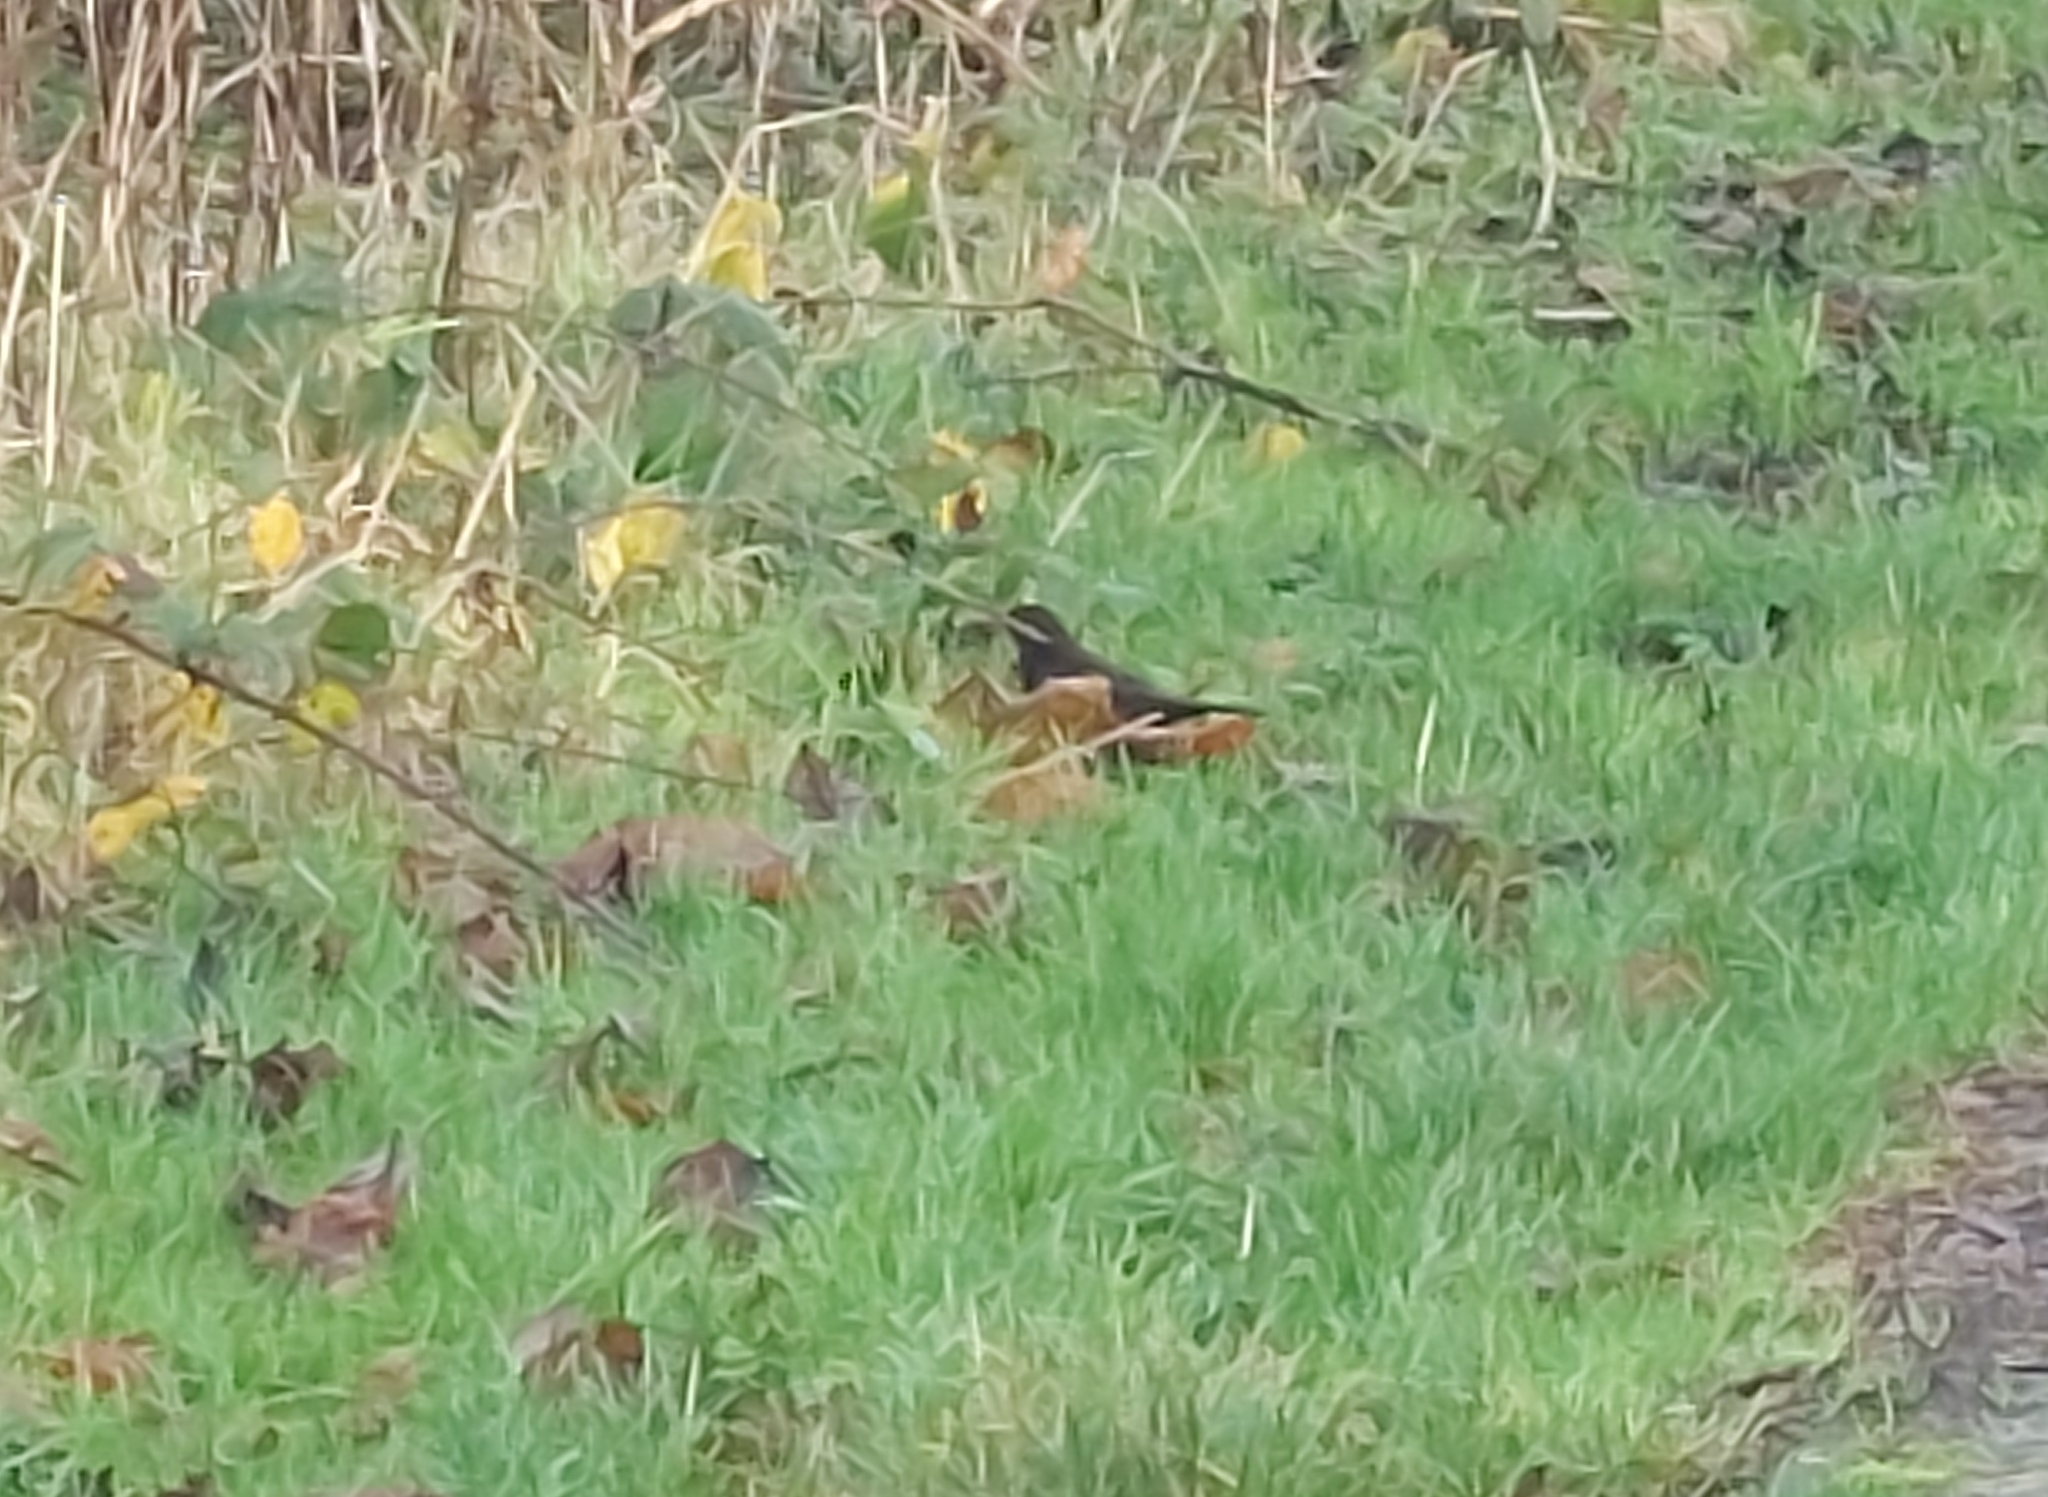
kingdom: Animalia
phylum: Chordata
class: Aves
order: Passeriformes
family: Turdidae
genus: Turdus
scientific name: Turdus merula
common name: Common blackbird
